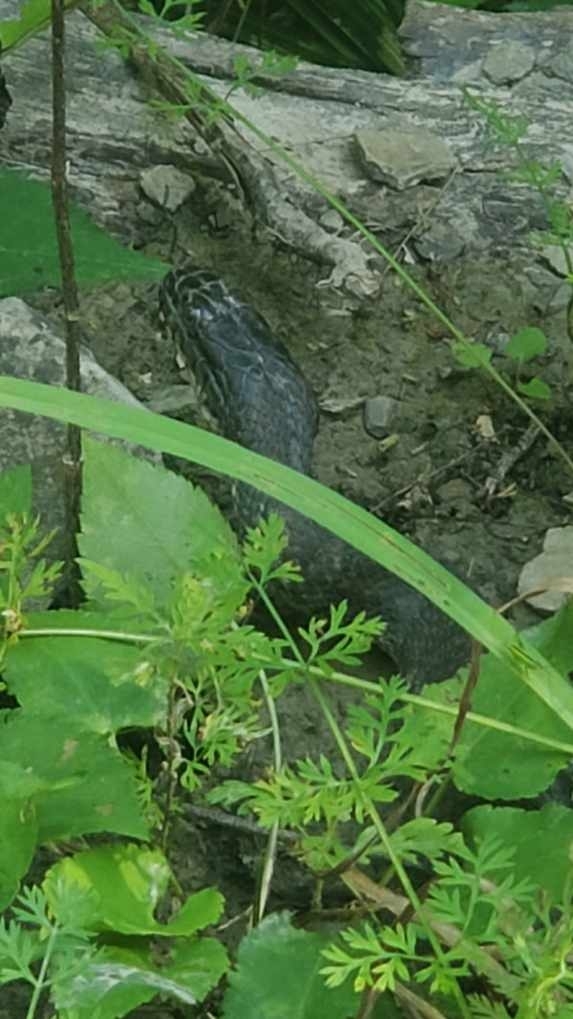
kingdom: Animalia
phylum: Chordata
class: Squamata
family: Colubridae
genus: Nerodia
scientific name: Nerodia sipedon
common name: Northern water snake
